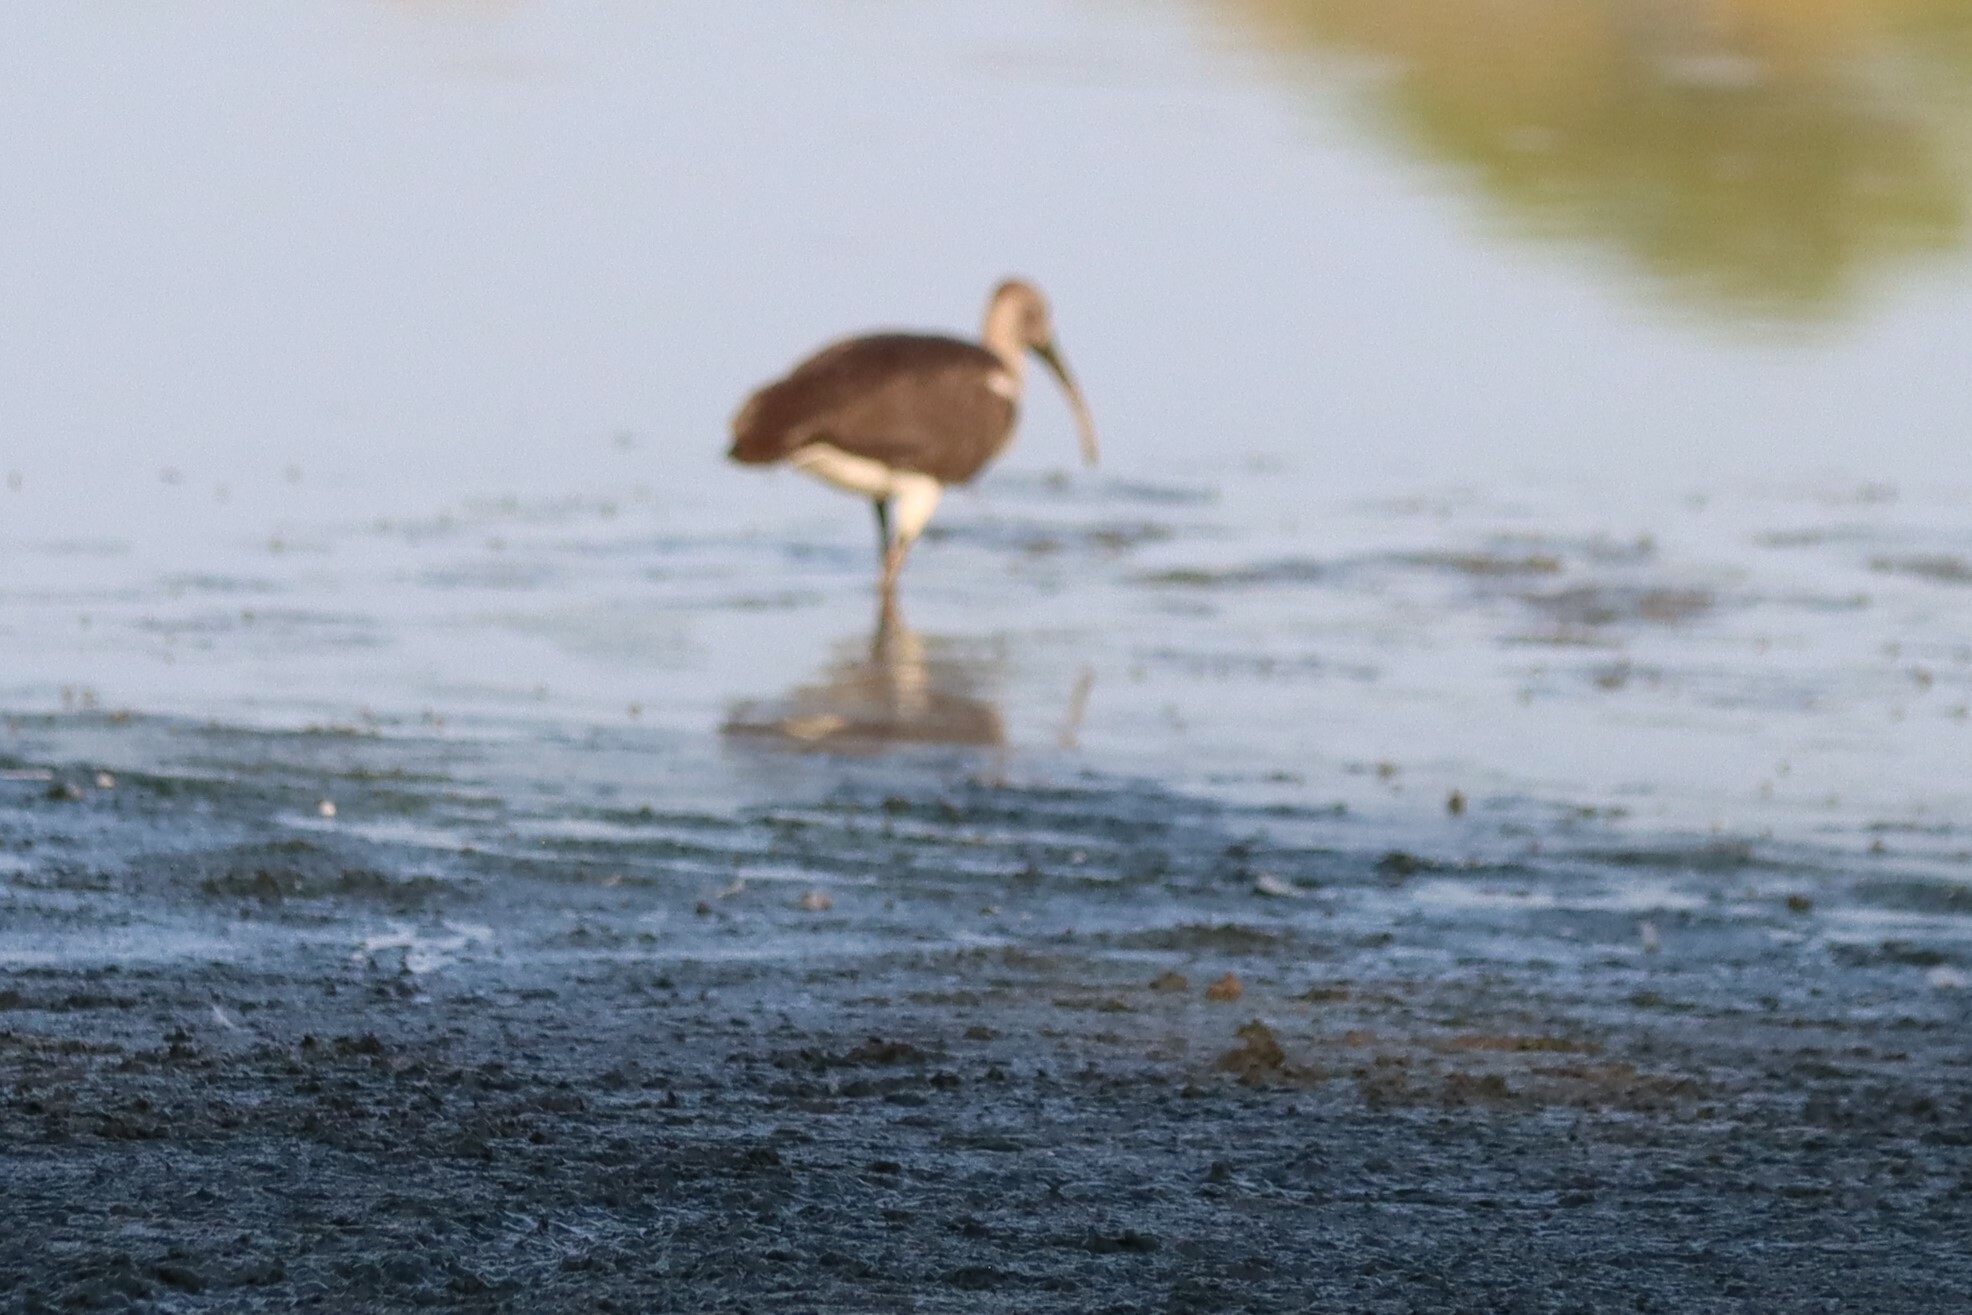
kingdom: Animalia
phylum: Chordata
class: Aves
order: Pelecaniformes
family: Threskiornithidae
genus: Eudocimus
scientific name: Eudocimus albus
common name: White ibis
